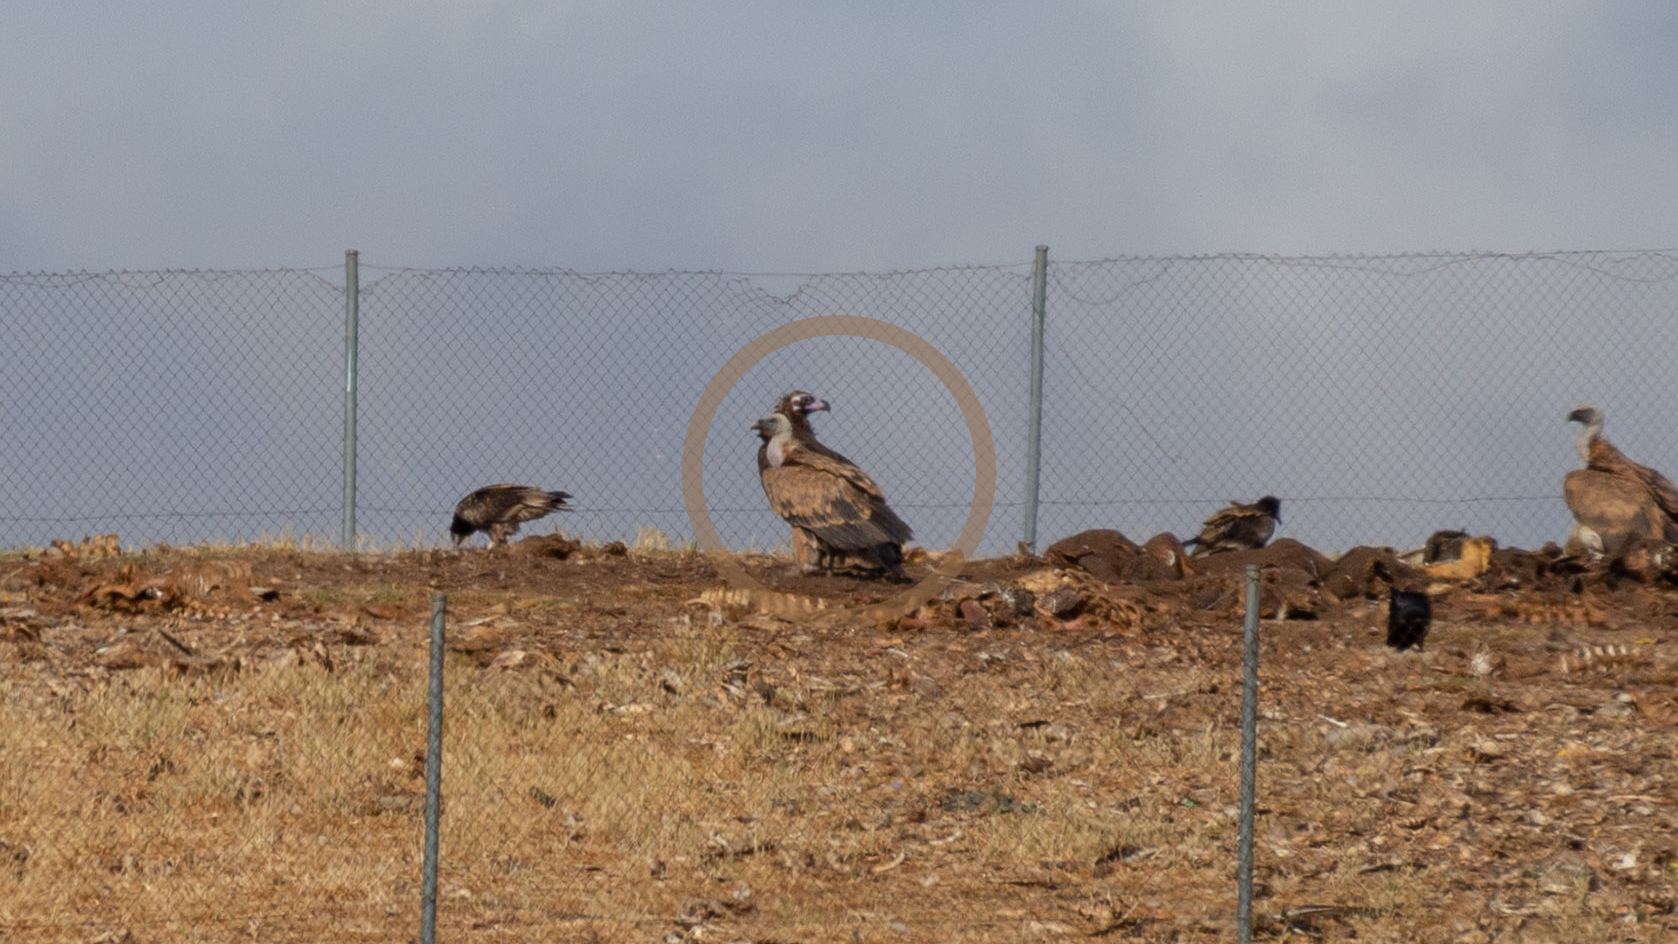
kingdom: Animalia
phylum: Chordata
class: Aves
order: Accipitriformes
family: Accipitridae
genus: Aegypius
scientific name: Aegypius monachus
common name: Cinereous vulture
